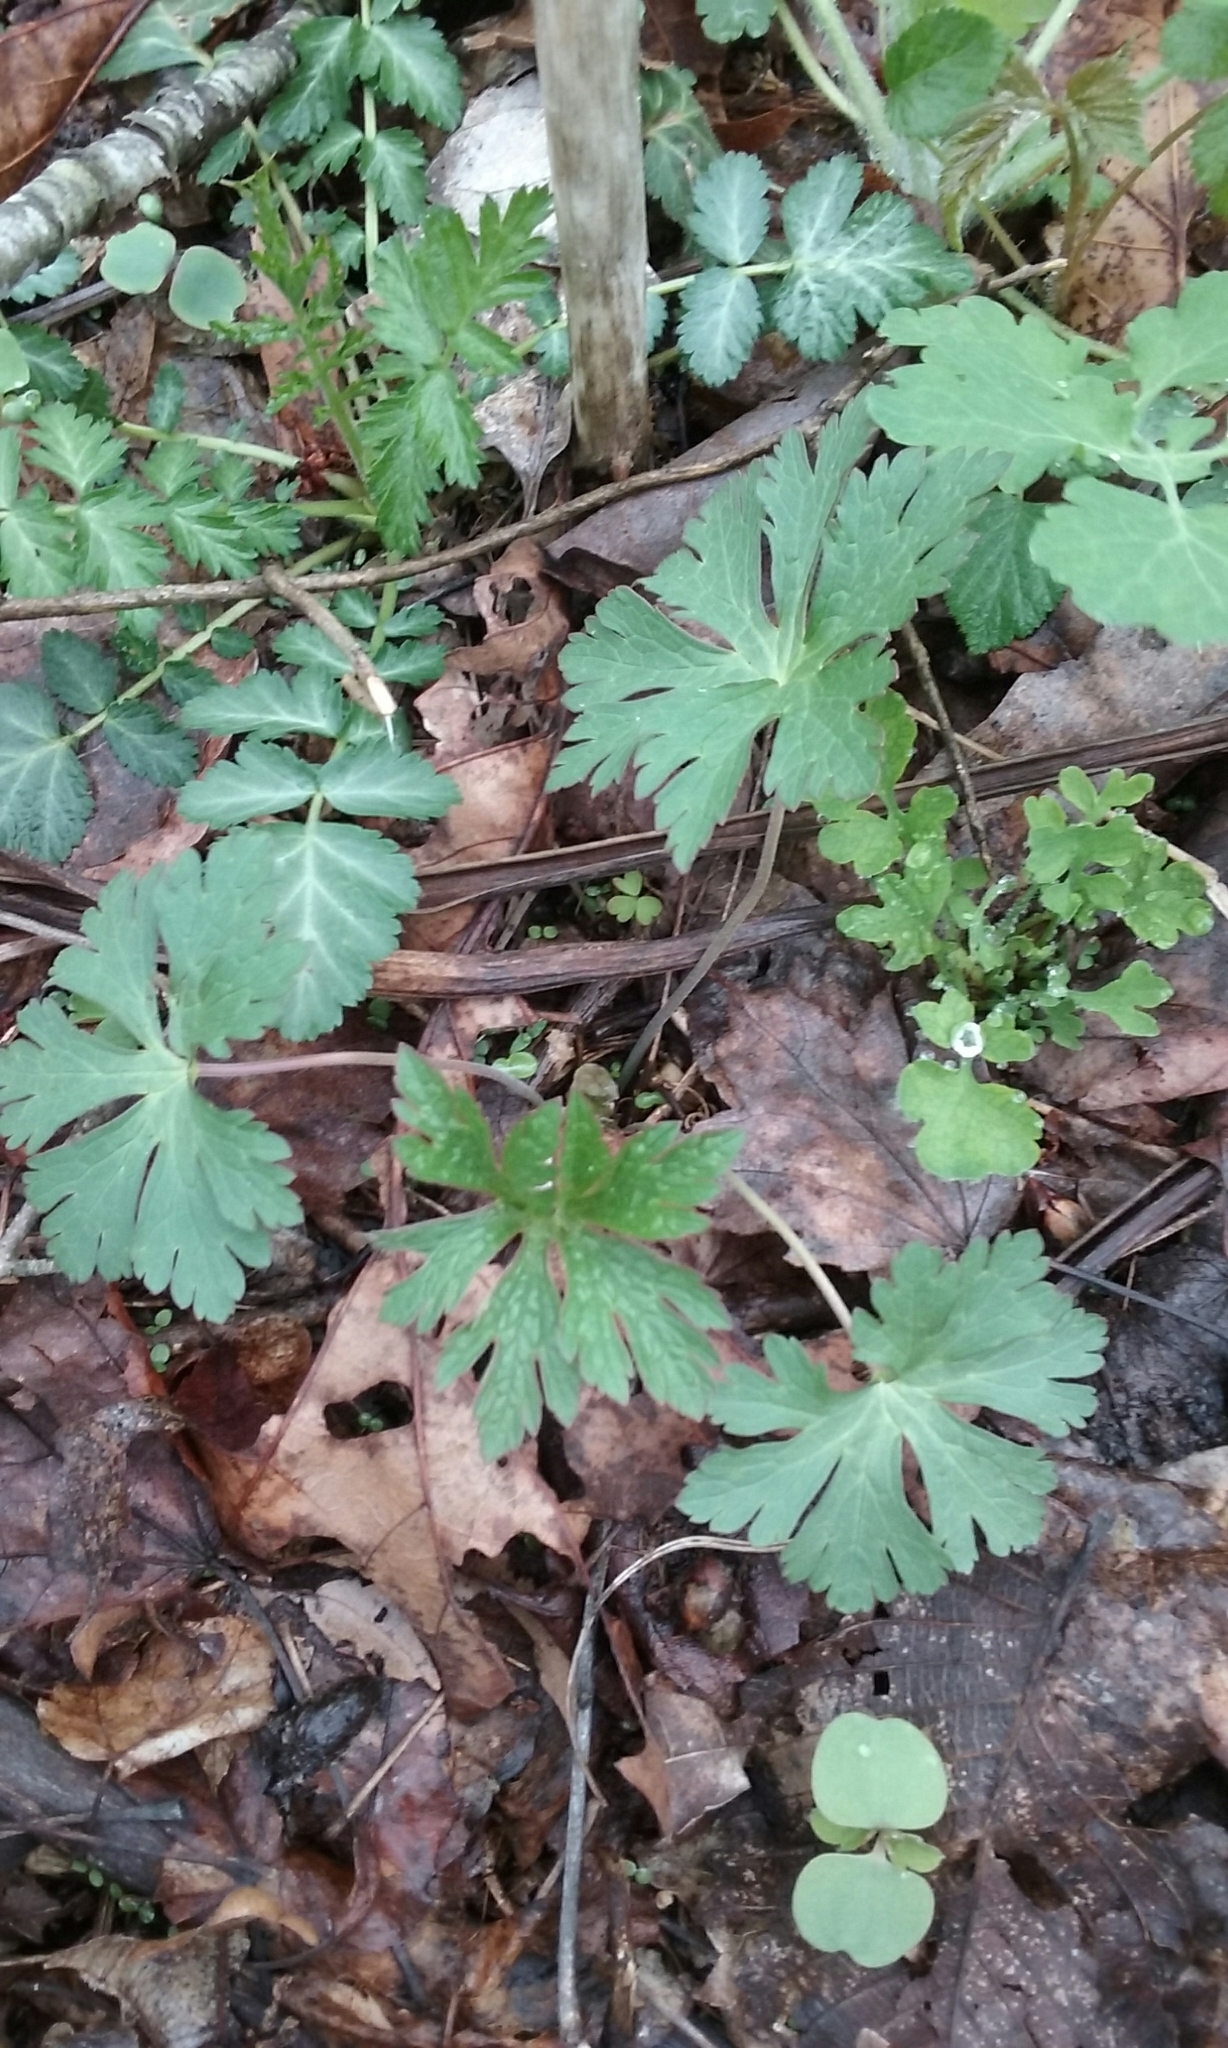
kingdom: Plantae
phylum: Tracheophyta
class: Magnoliopsida
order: Geraniales
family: Geraniaceae
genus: Geranium
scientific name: Geranium maculatum
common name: Spotted geranium
